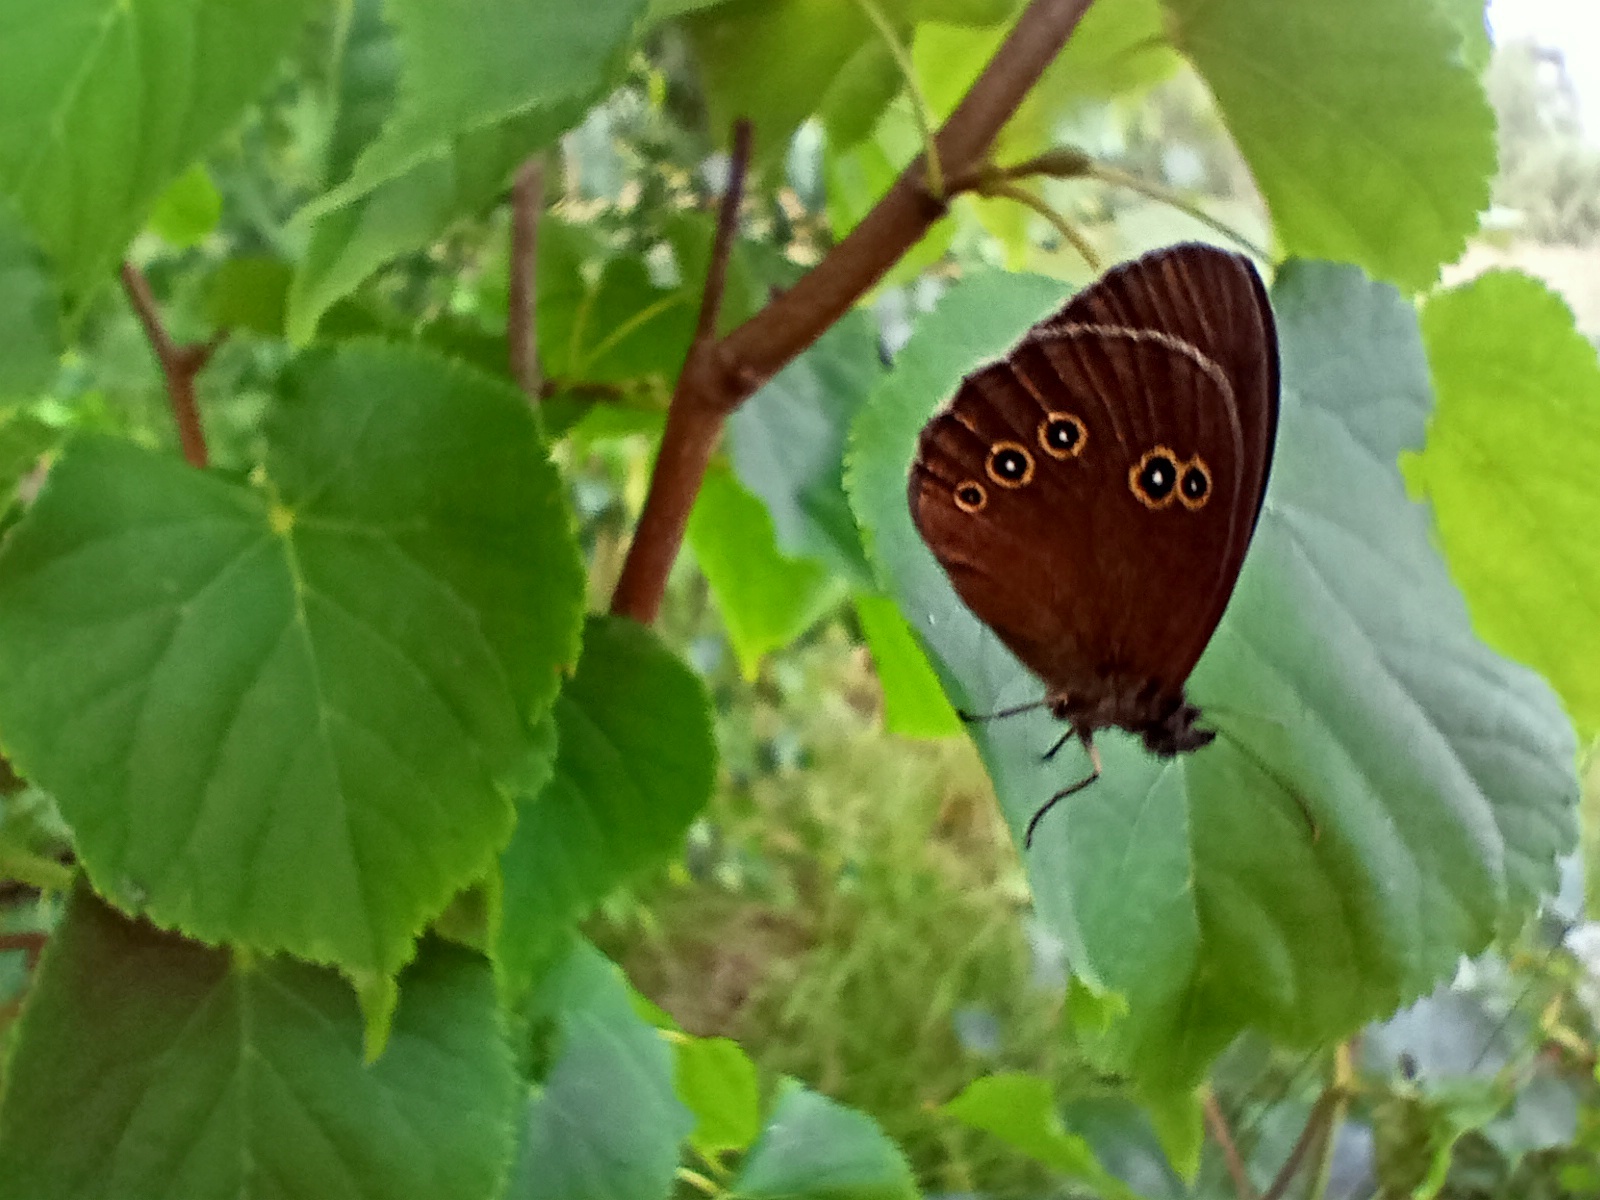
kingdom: Animalia
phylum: Arthropoda
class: Insecta
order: Lepidoptera
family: Nymphalidae
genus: Aphantopus
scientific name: Aphantopus hyperantus
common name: Ringlet
